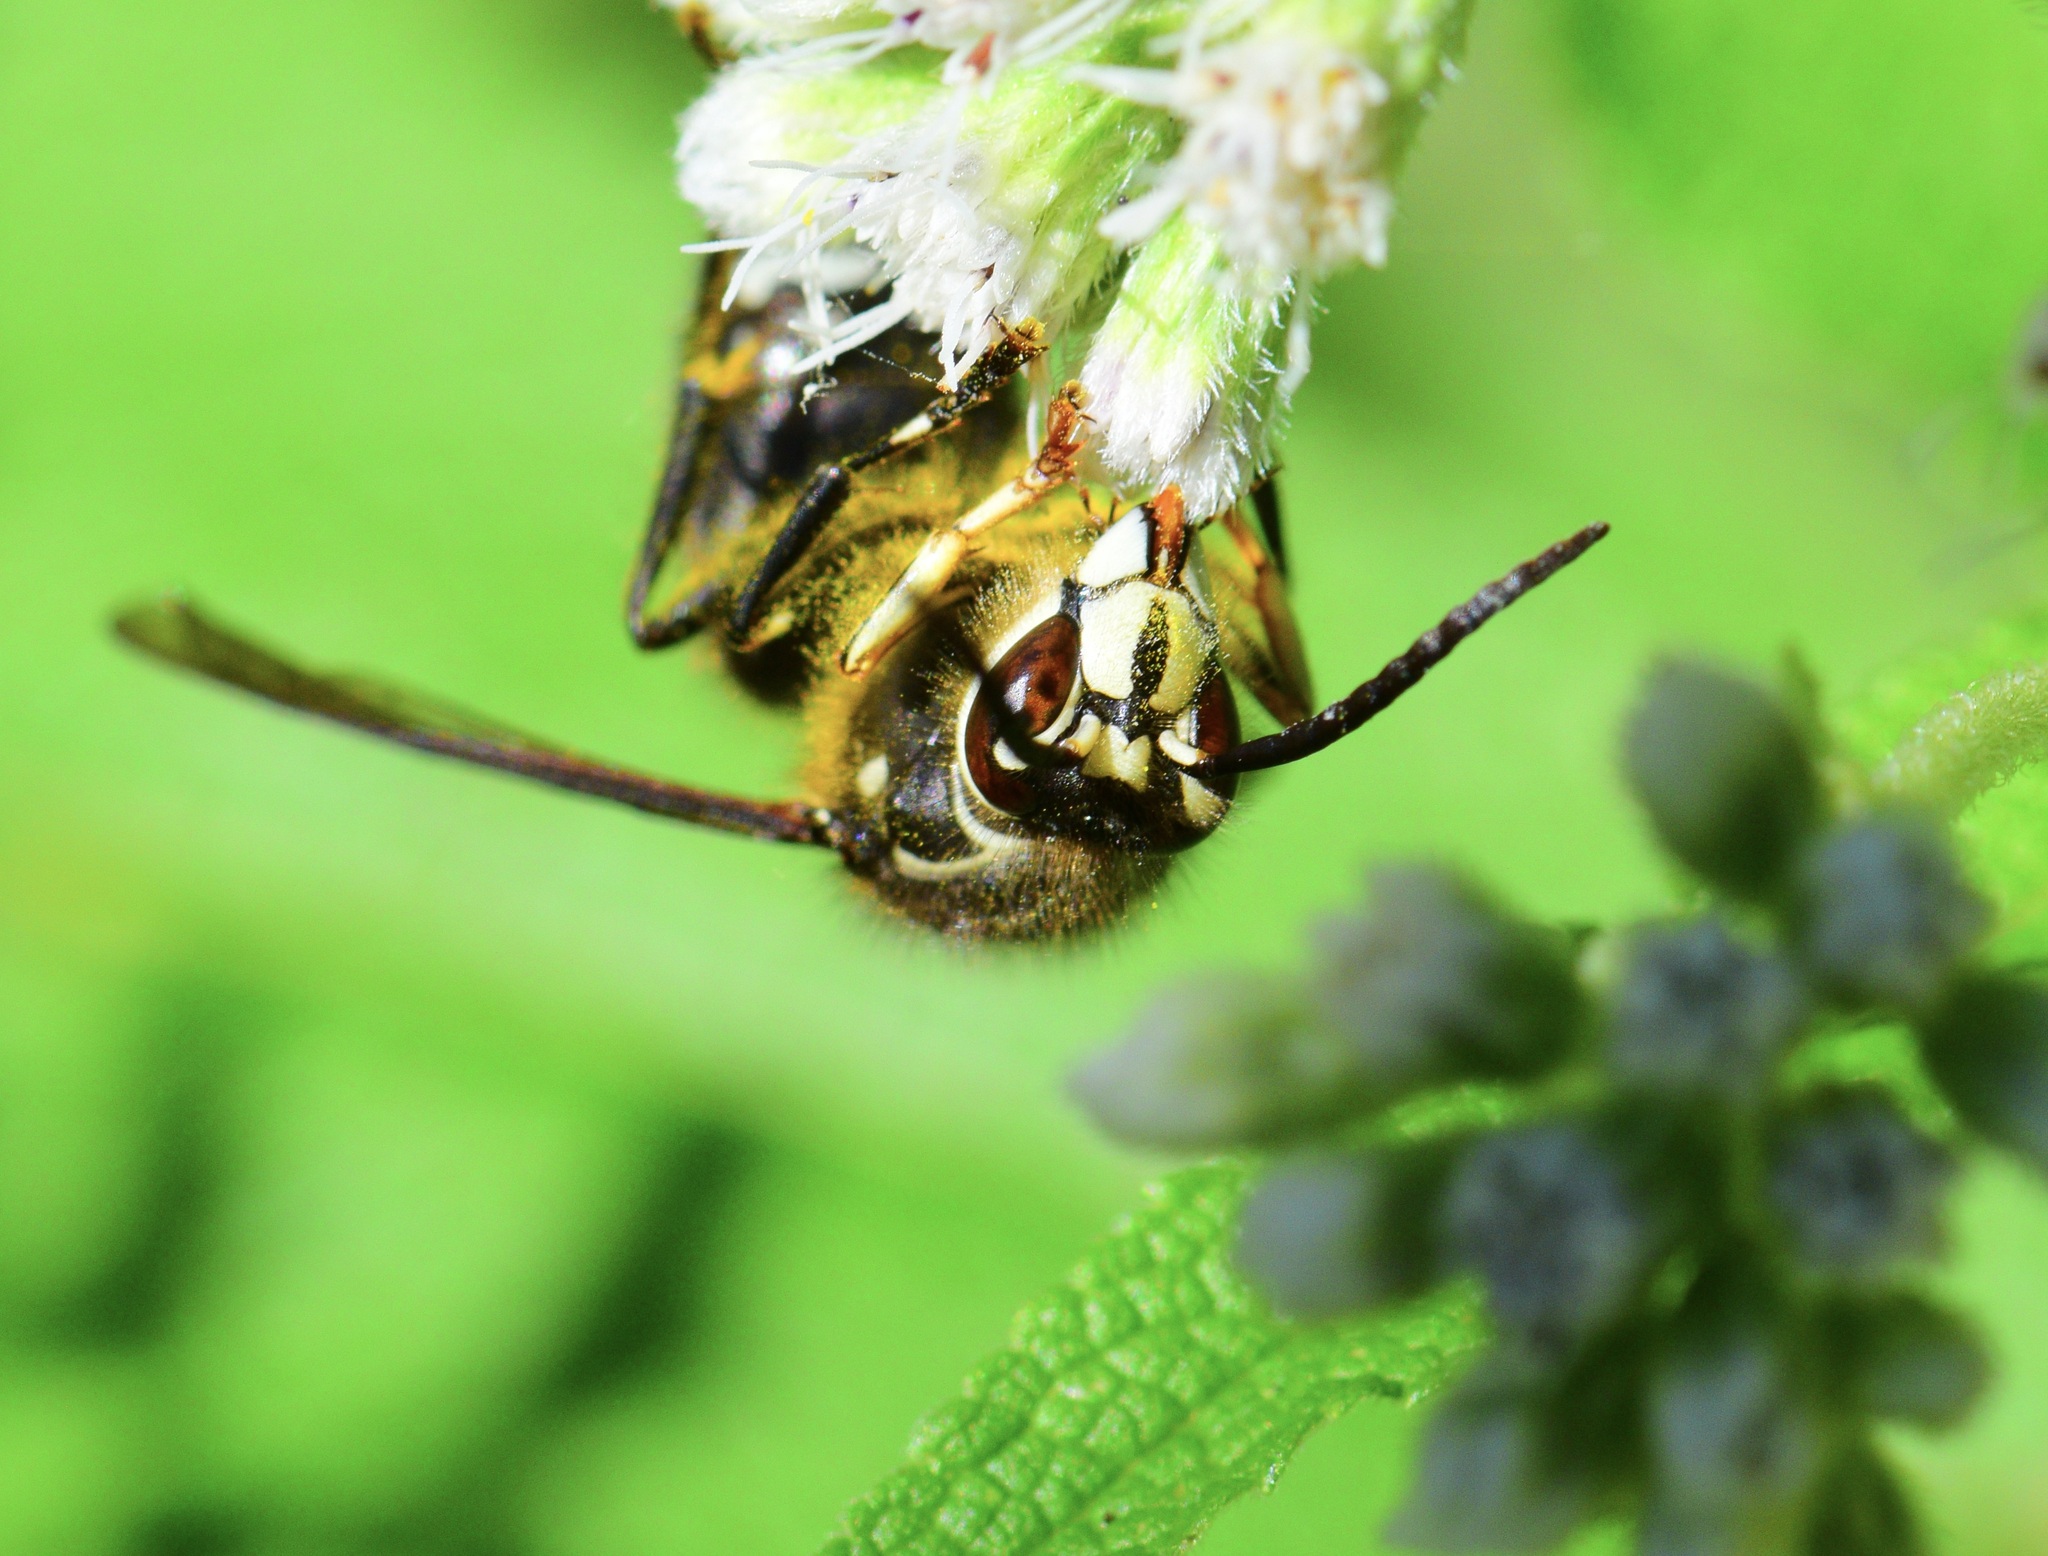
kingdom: Animalia
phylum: Arthropoda
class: Insecta
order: Hymenoptera
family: Vespidae
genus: Dolichovespula
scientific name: Dolichovespula maculata
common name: Bald-faced hornet
